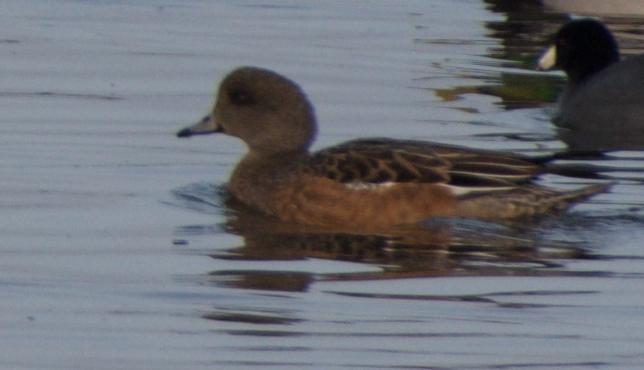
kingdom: Animalia
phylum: Chordata
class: Aves
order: Anseriformes
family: Anatidae
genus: Mareca
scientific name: Mareca americana
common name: American wigeon
